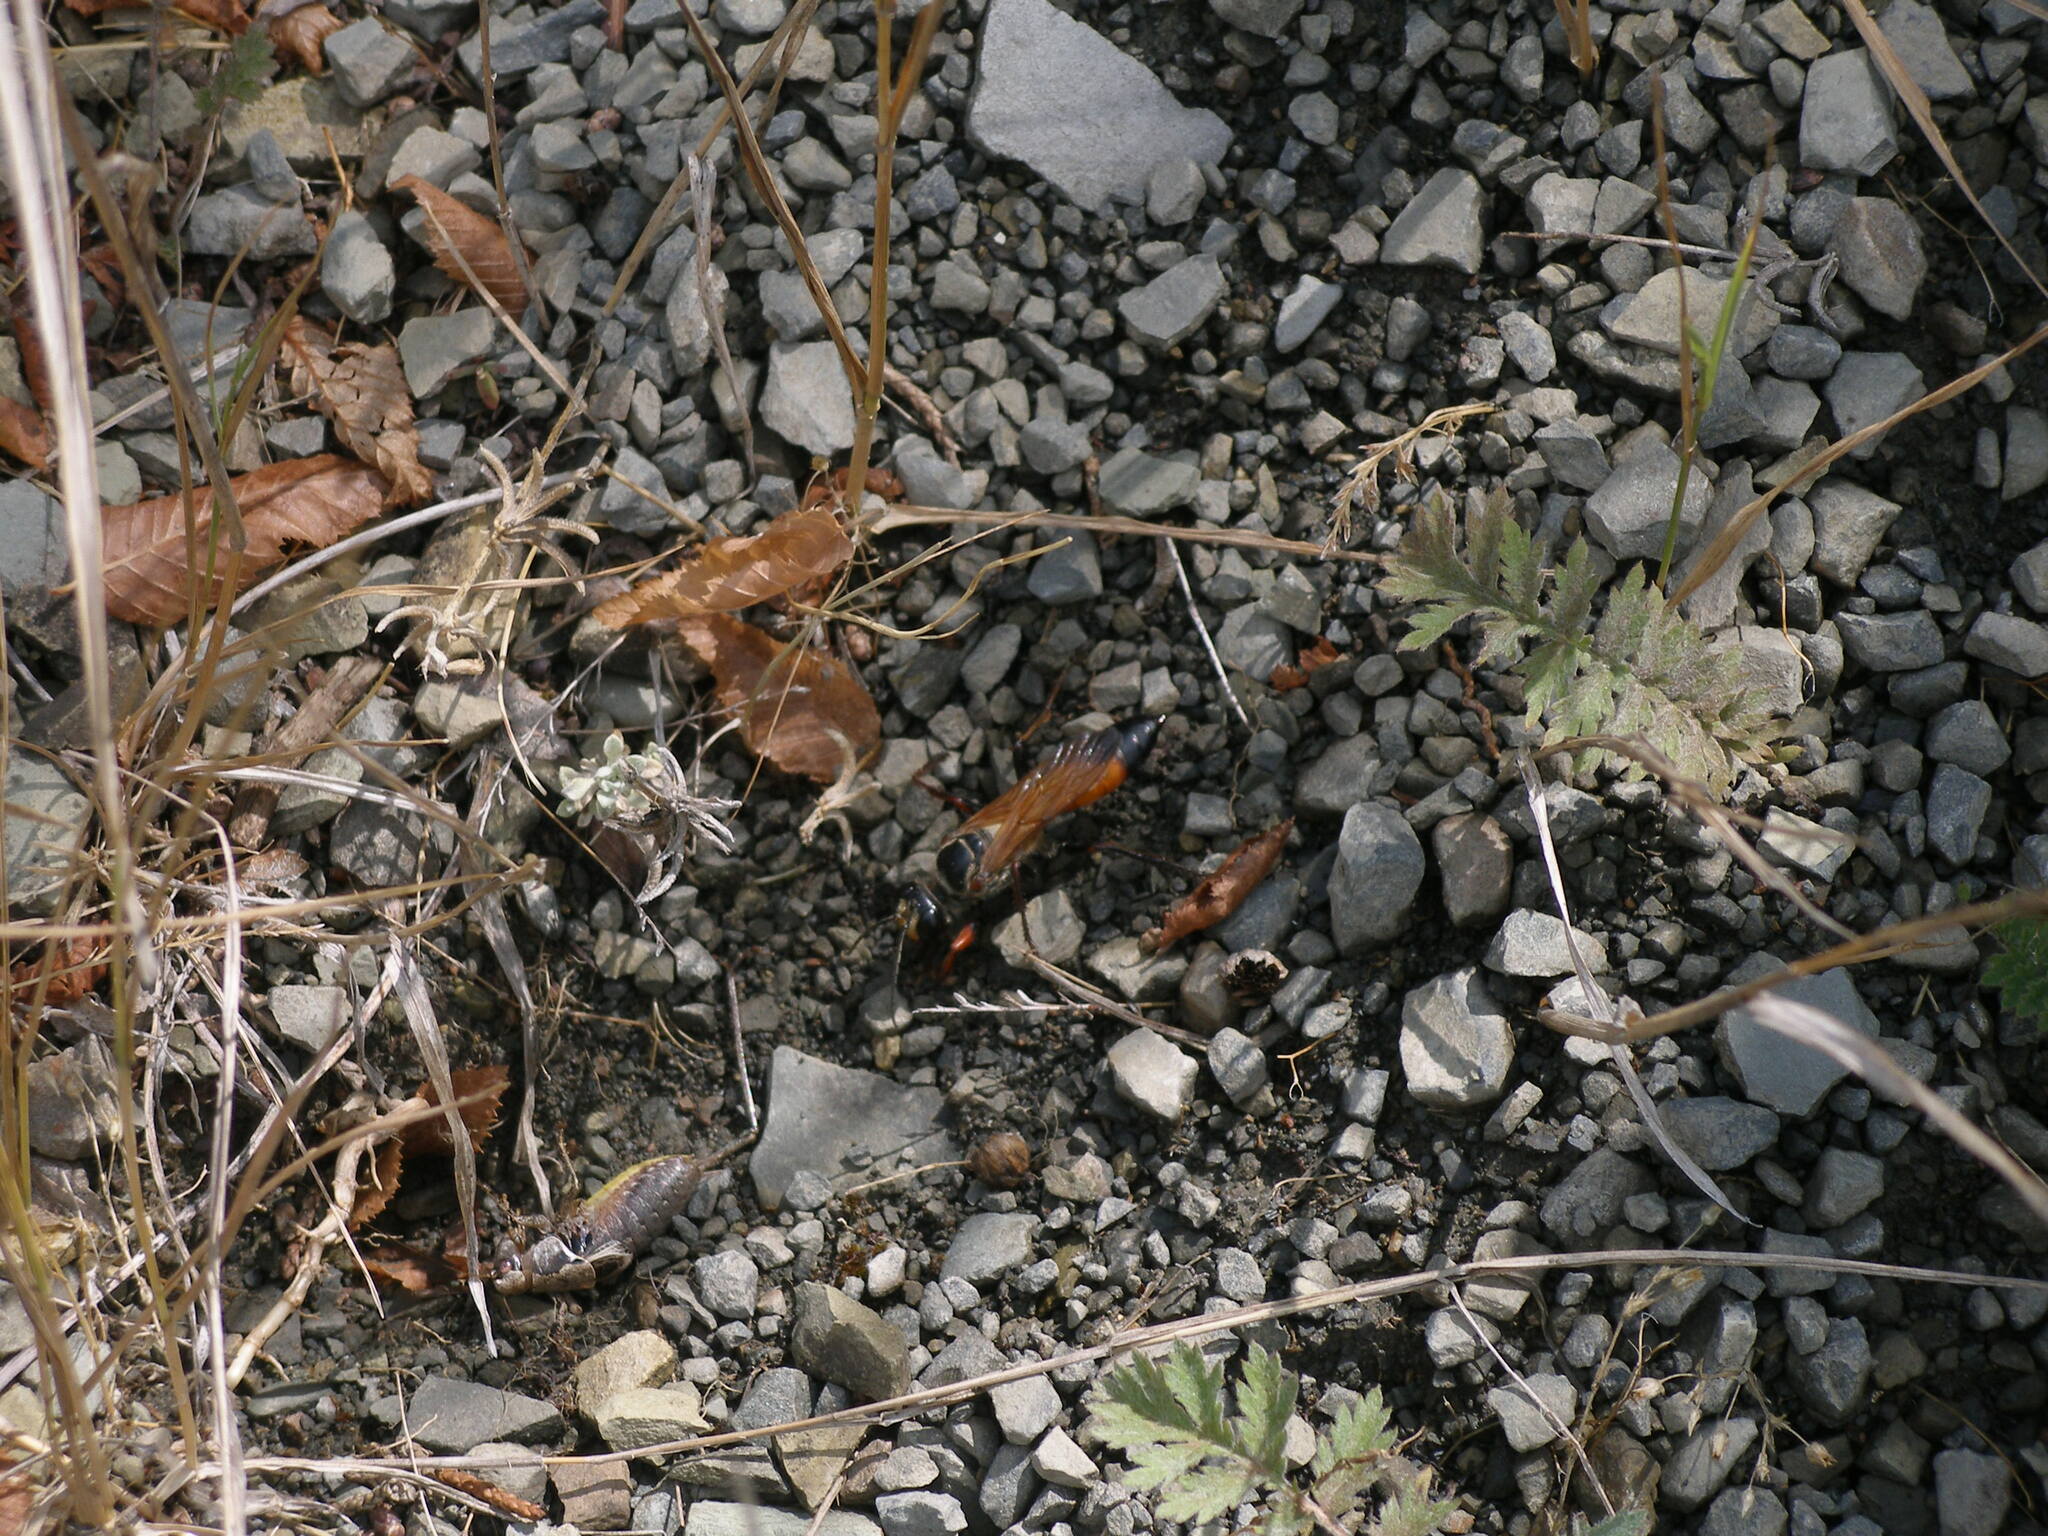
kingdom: Animalia
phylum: Arthropoda
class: Insecta
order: Hymenoptera
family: Sphecidae
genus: Sphex
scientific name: Sphex flavipennis
